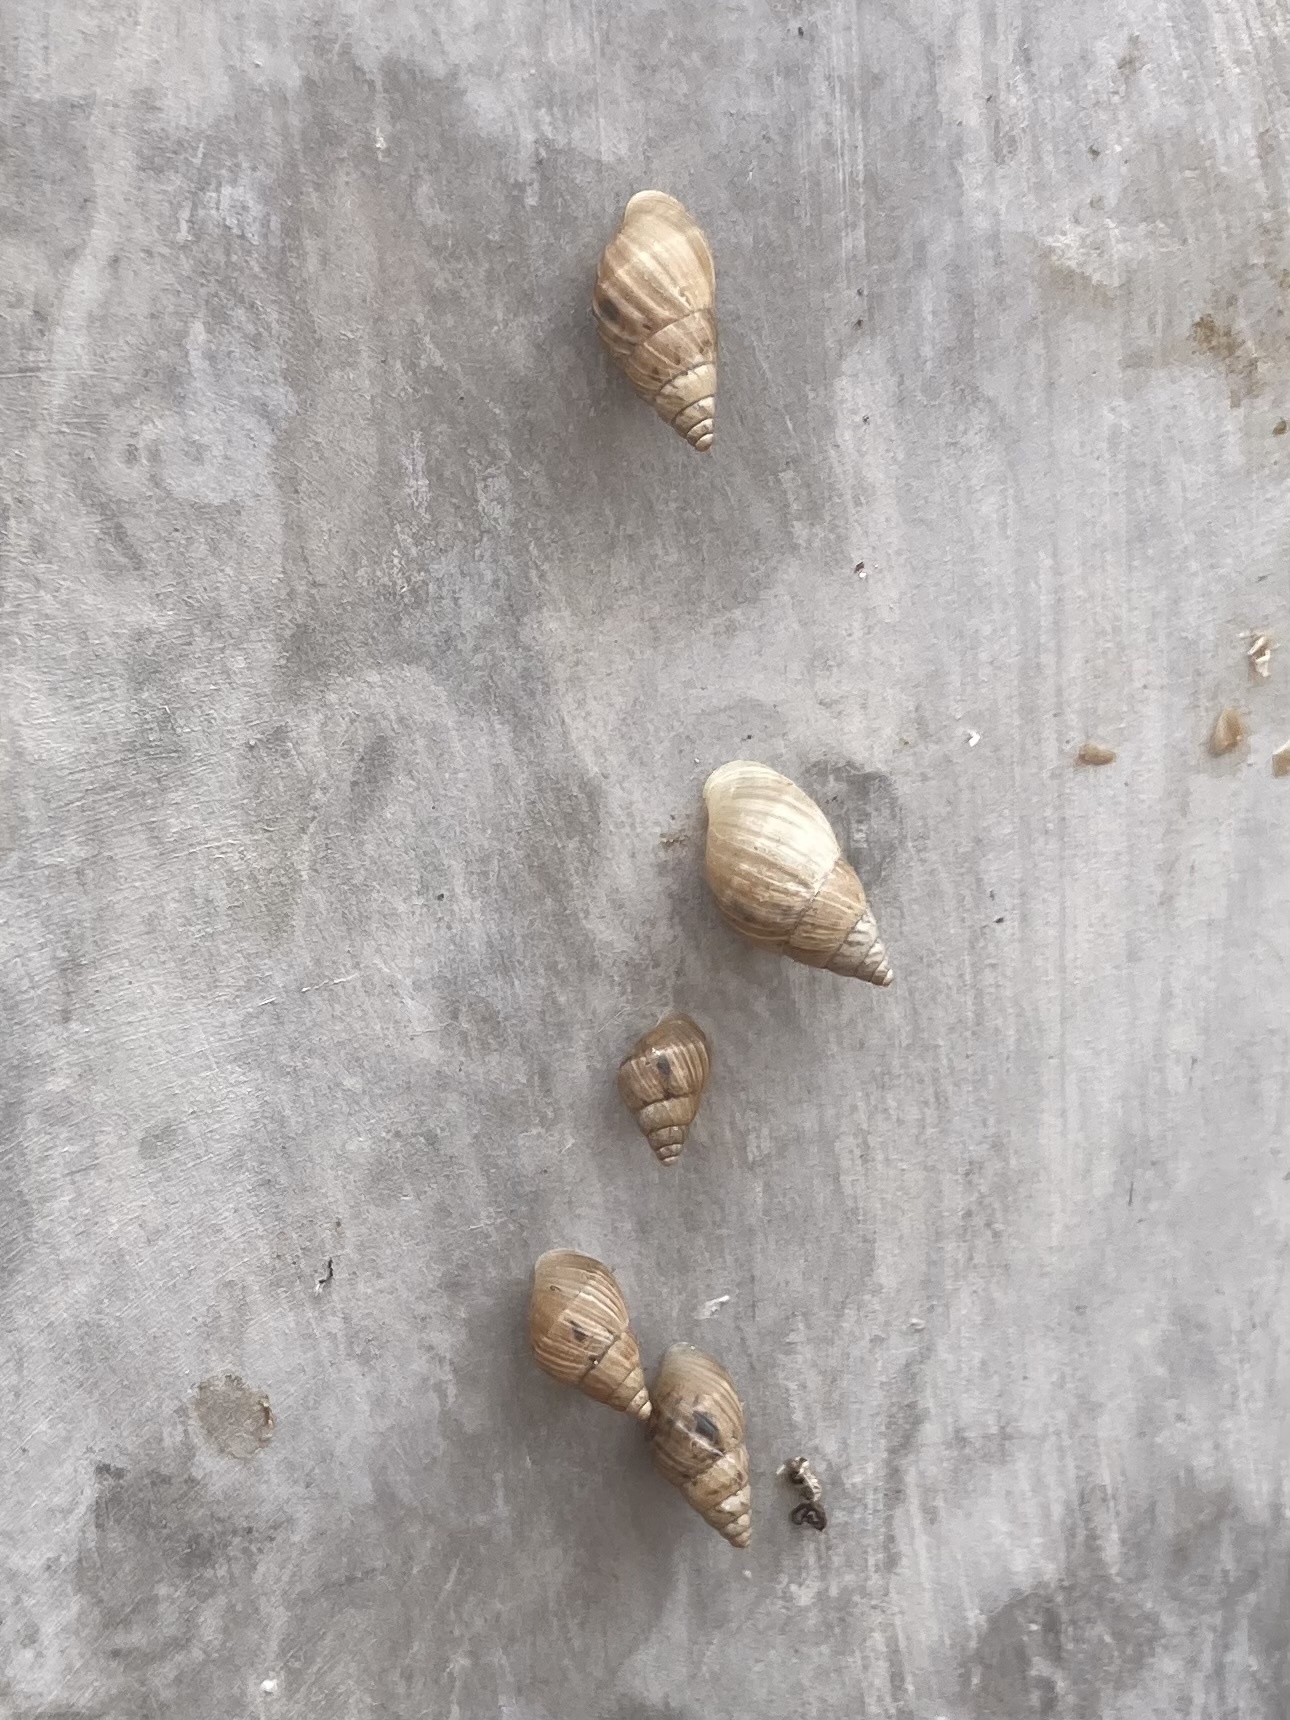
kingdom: Animalia
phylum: Mollusca
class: Gastropoda
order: Stylommatophora
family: Bulimulidae
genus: Bulimulus
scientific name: Bulimulus bonariensis
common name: Snail
